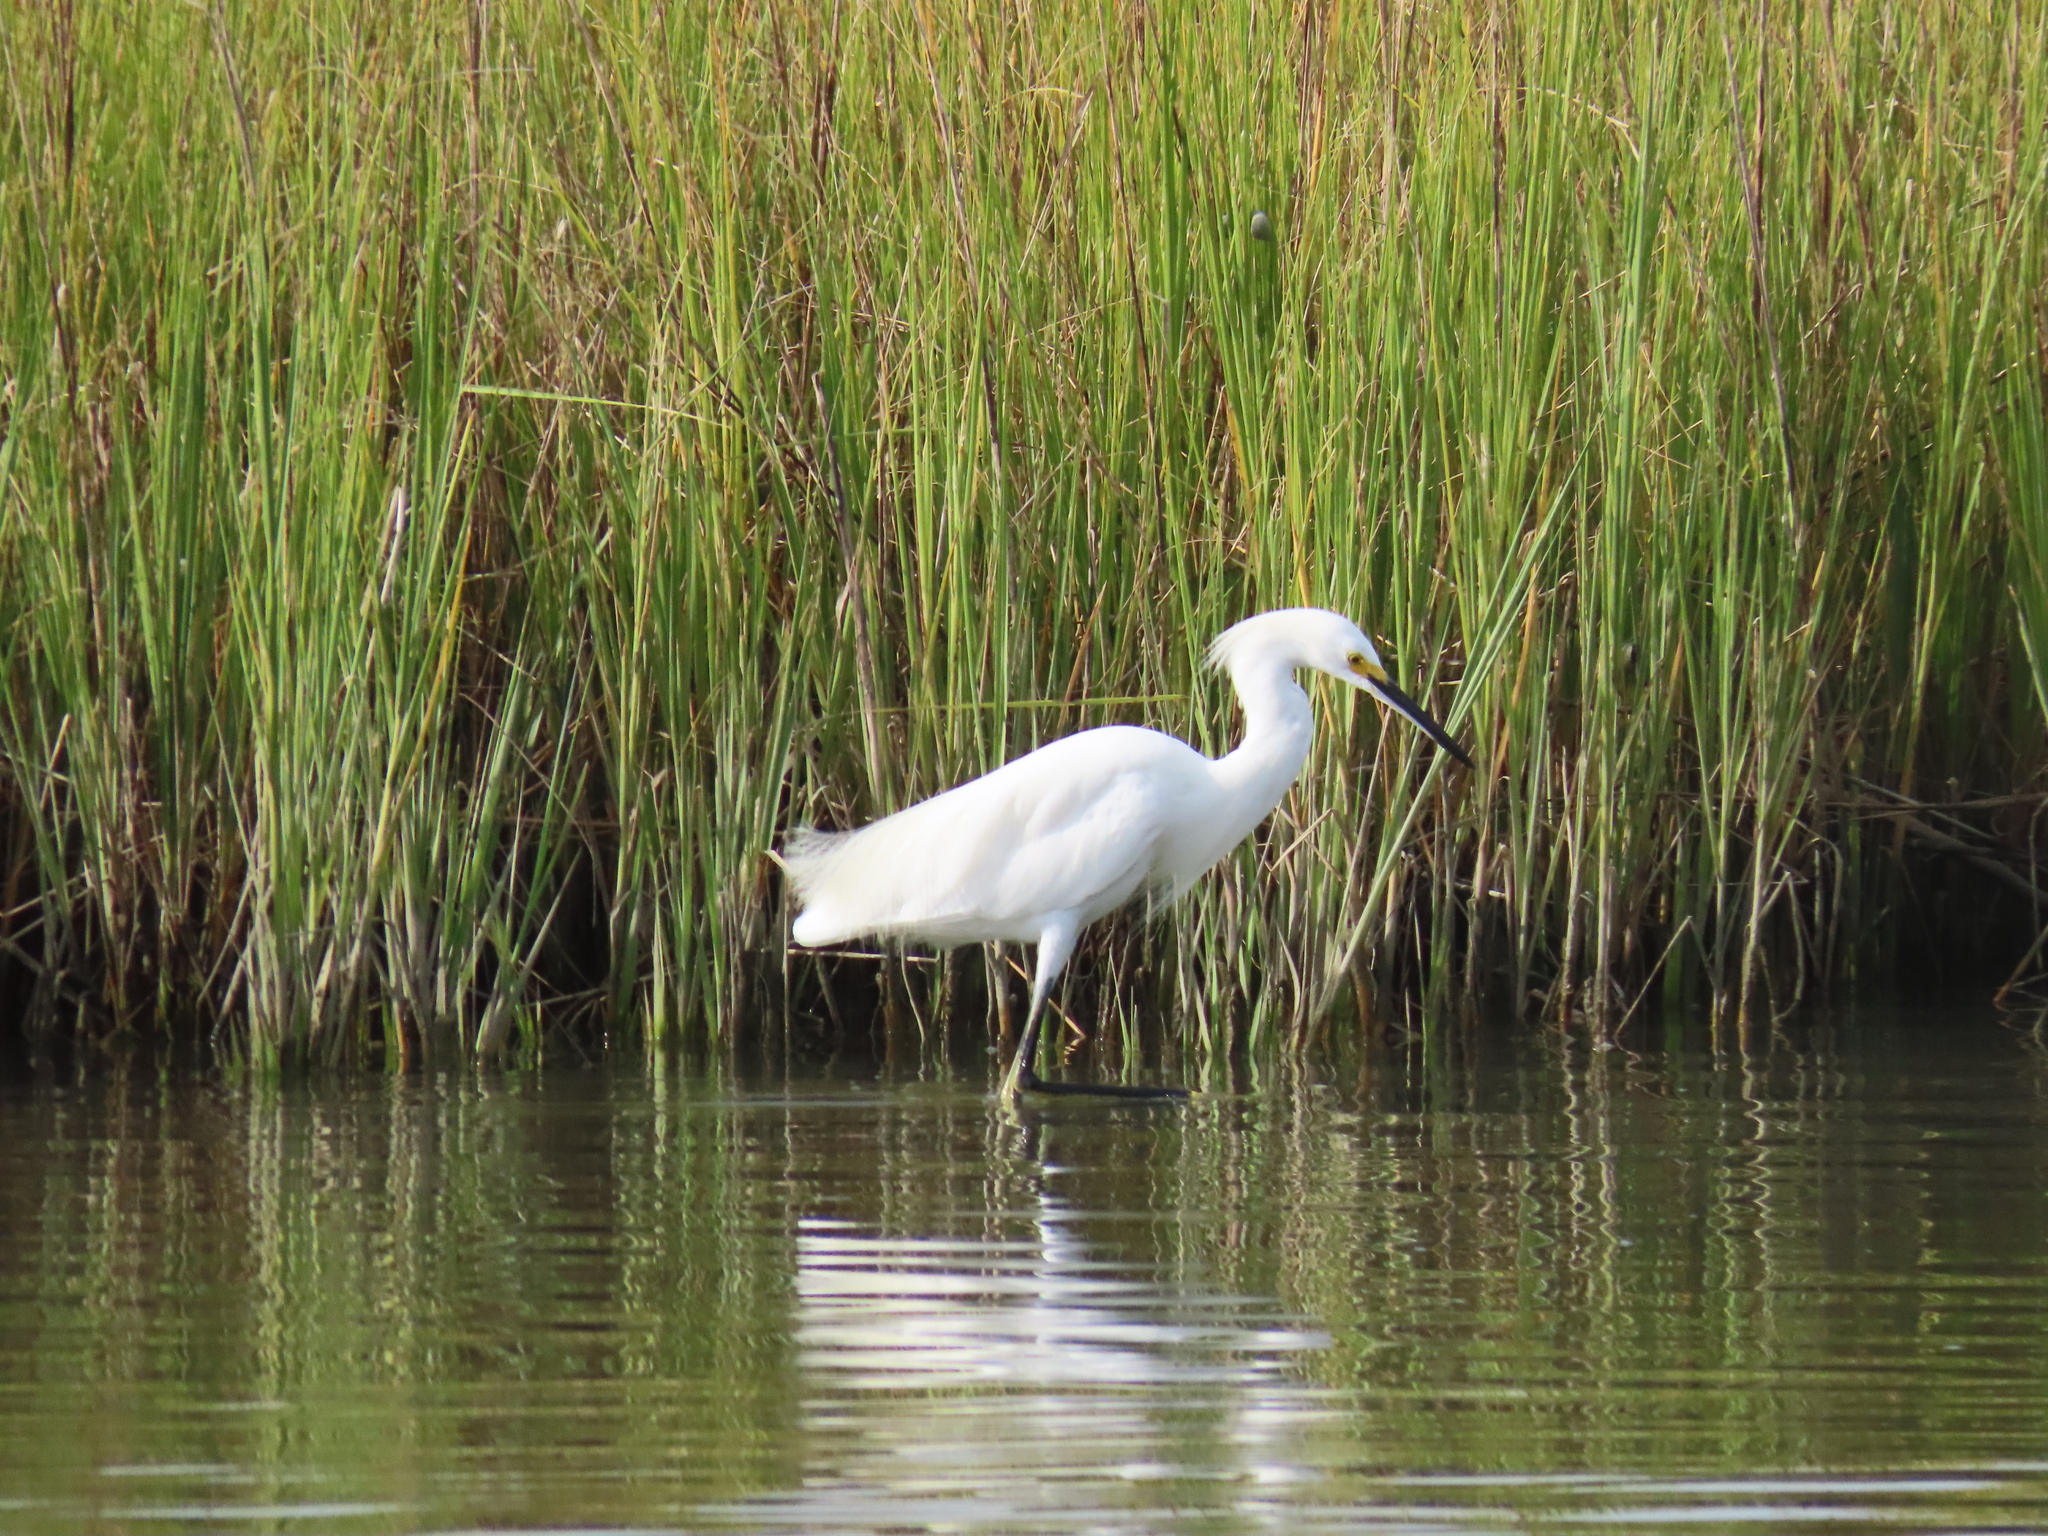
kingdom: Animalia
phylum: Chordata
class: Aves
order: Pelecaniformes
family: Ardeidae
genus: Egretta
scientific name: Egretta thula
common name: Snowy egret
